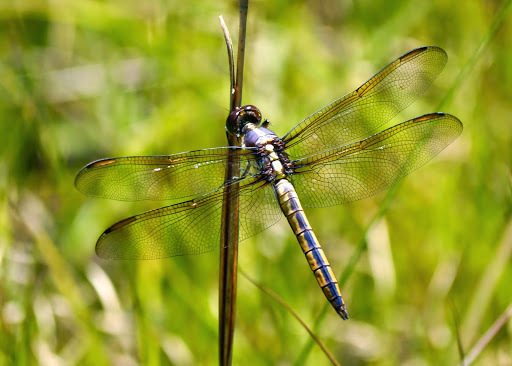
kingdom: Animalia
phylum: Arthropoda
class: Insecta
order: Odonata
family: Libellulidae
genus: Libellula
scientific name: Libellula flavida
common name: Yellow-sided skimmer
